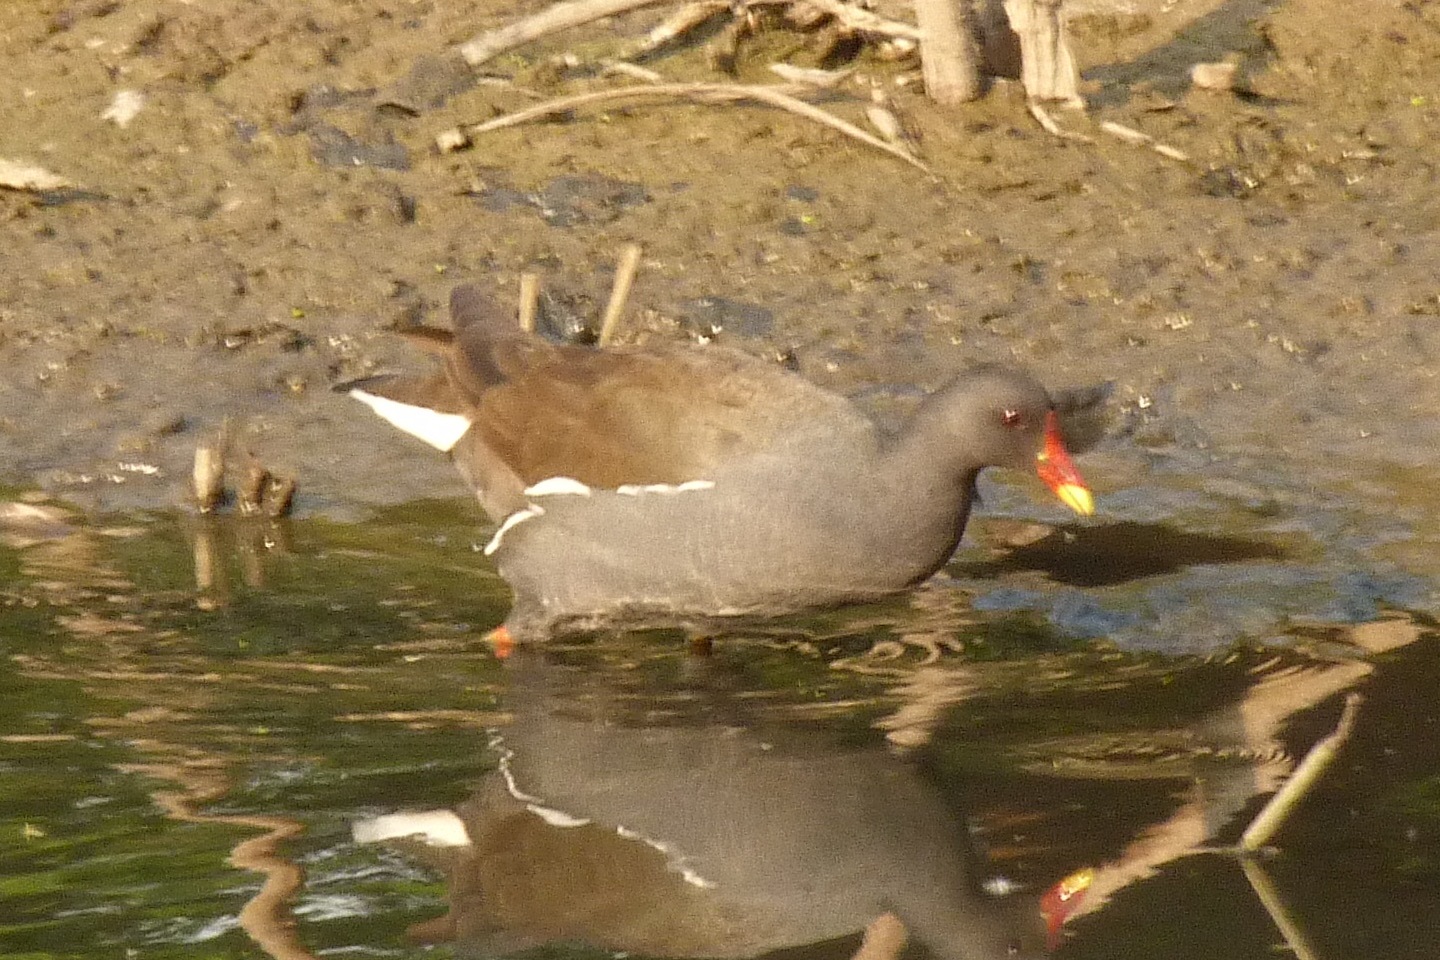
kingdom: Animalia
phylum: Chordata
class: Aves
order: Gruiformes
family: Rallidae
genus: Gallinula
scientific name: Gallinula chloropus
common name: Common moorhen
